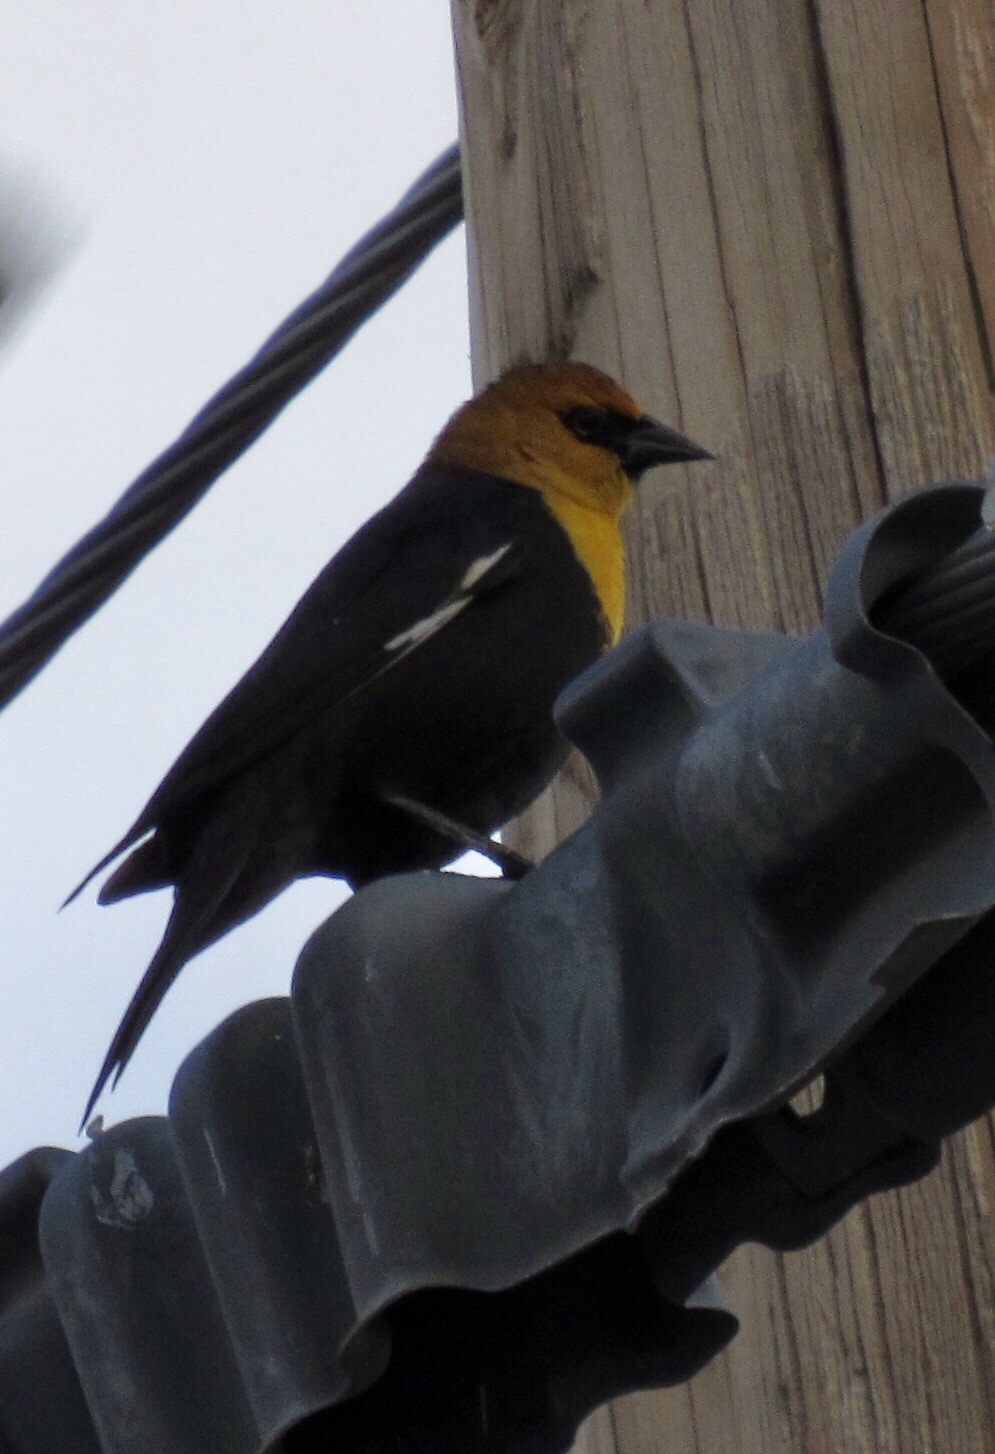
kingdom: Animalia
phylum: Chordata
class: Aves
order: Passeriformes
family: Icteridae
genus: Xanthocephalus
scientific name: Xanthocephalus xanthocephalus
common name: Yellow-headed blackbird
